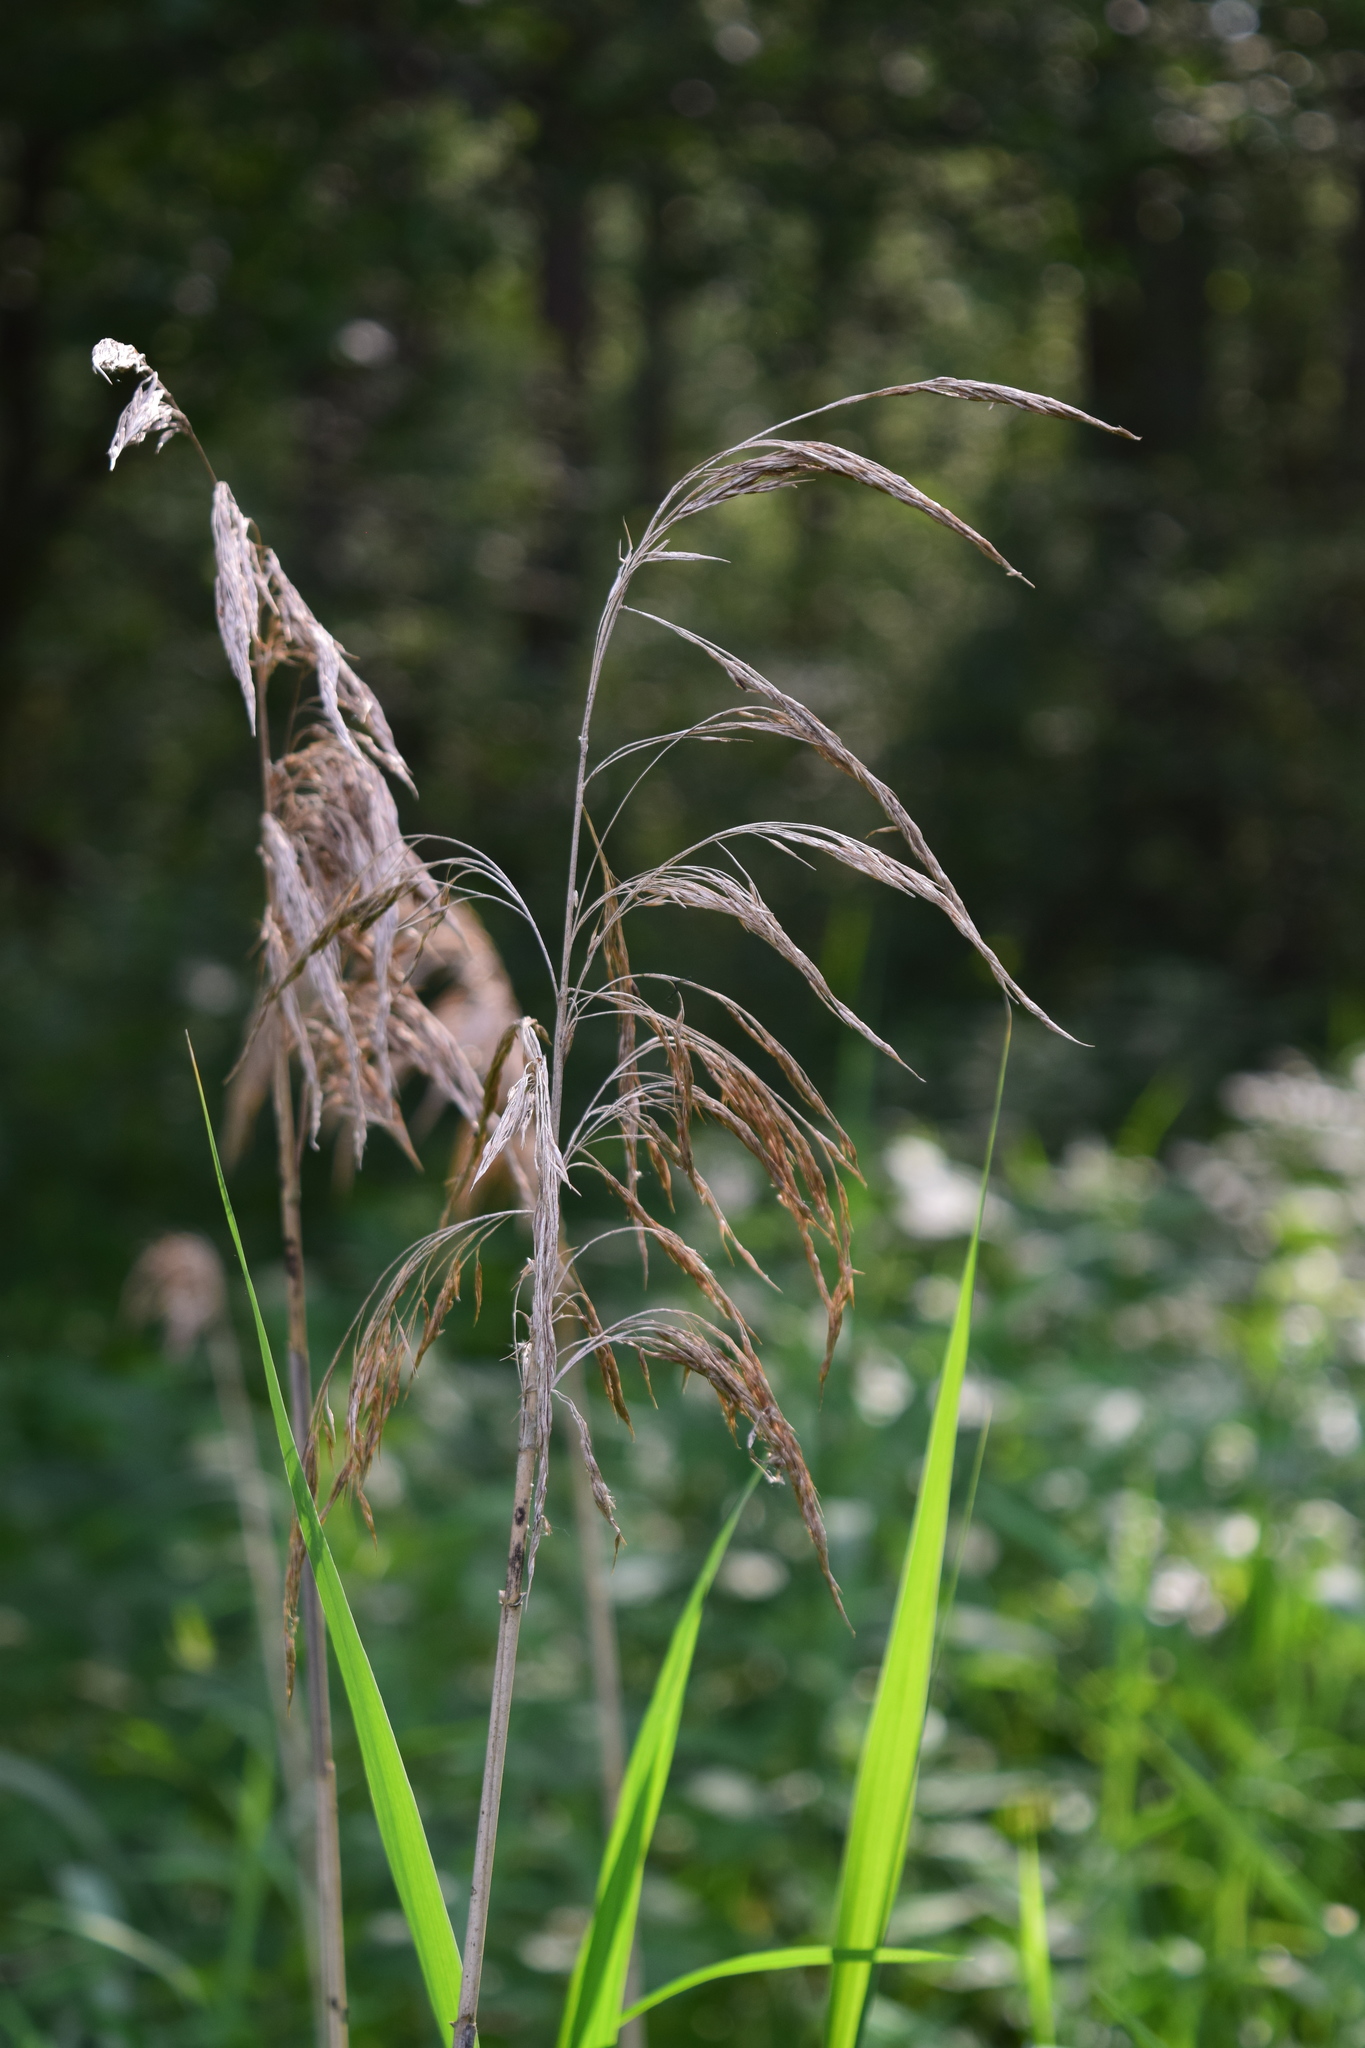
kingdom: Plantae
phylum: Tracheophyta
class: Liliopsida
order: Poales
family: Poaceae
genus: Phragmites
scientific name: Phragmites australis
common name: Common reed
